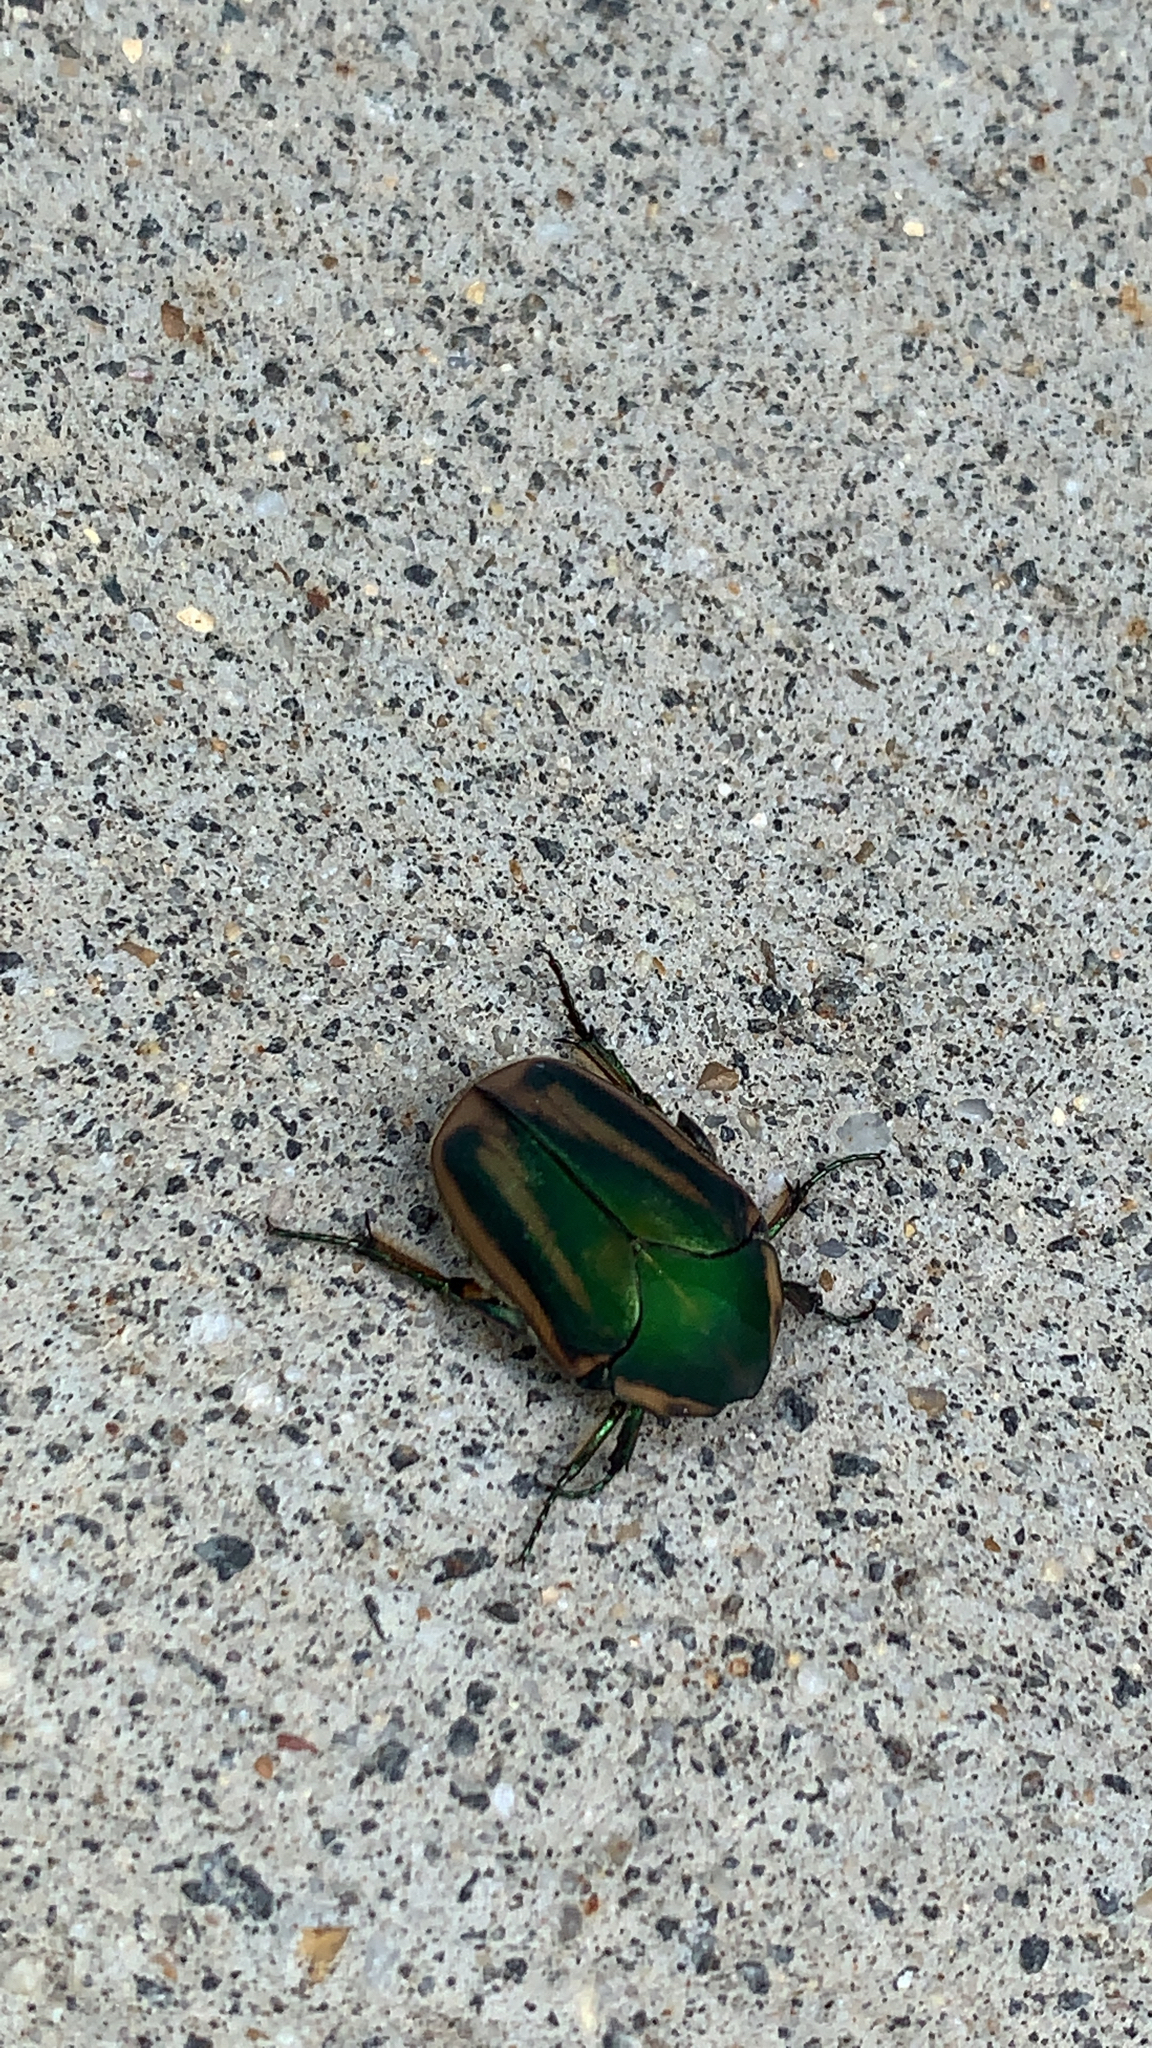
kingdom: Animalia
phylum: Arthropoda
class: Insecta
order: Coleoptera
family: Scarabaeidae
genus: Cotinis
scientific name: Cotinis nitida
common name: Common green june beetle
